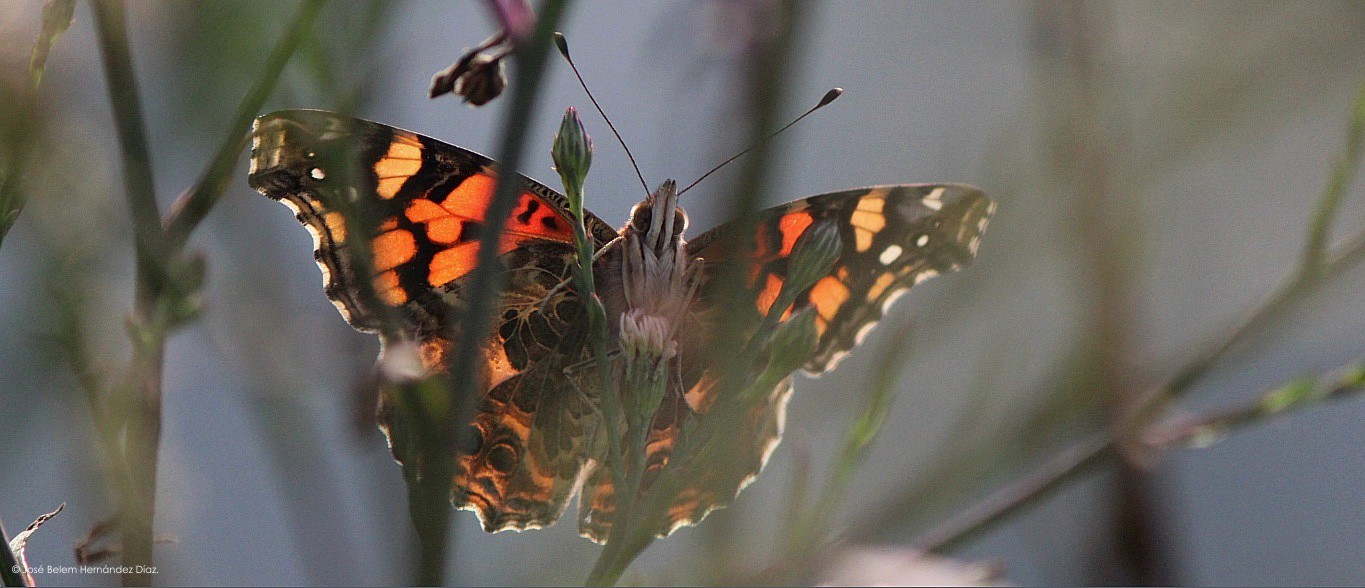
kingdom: Animalia
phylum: Arthropoda
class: Insecta
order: Lepidoptera
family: Nymphalidae
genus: Vanessa
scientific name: Vanessa annabella
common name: West coast lady
